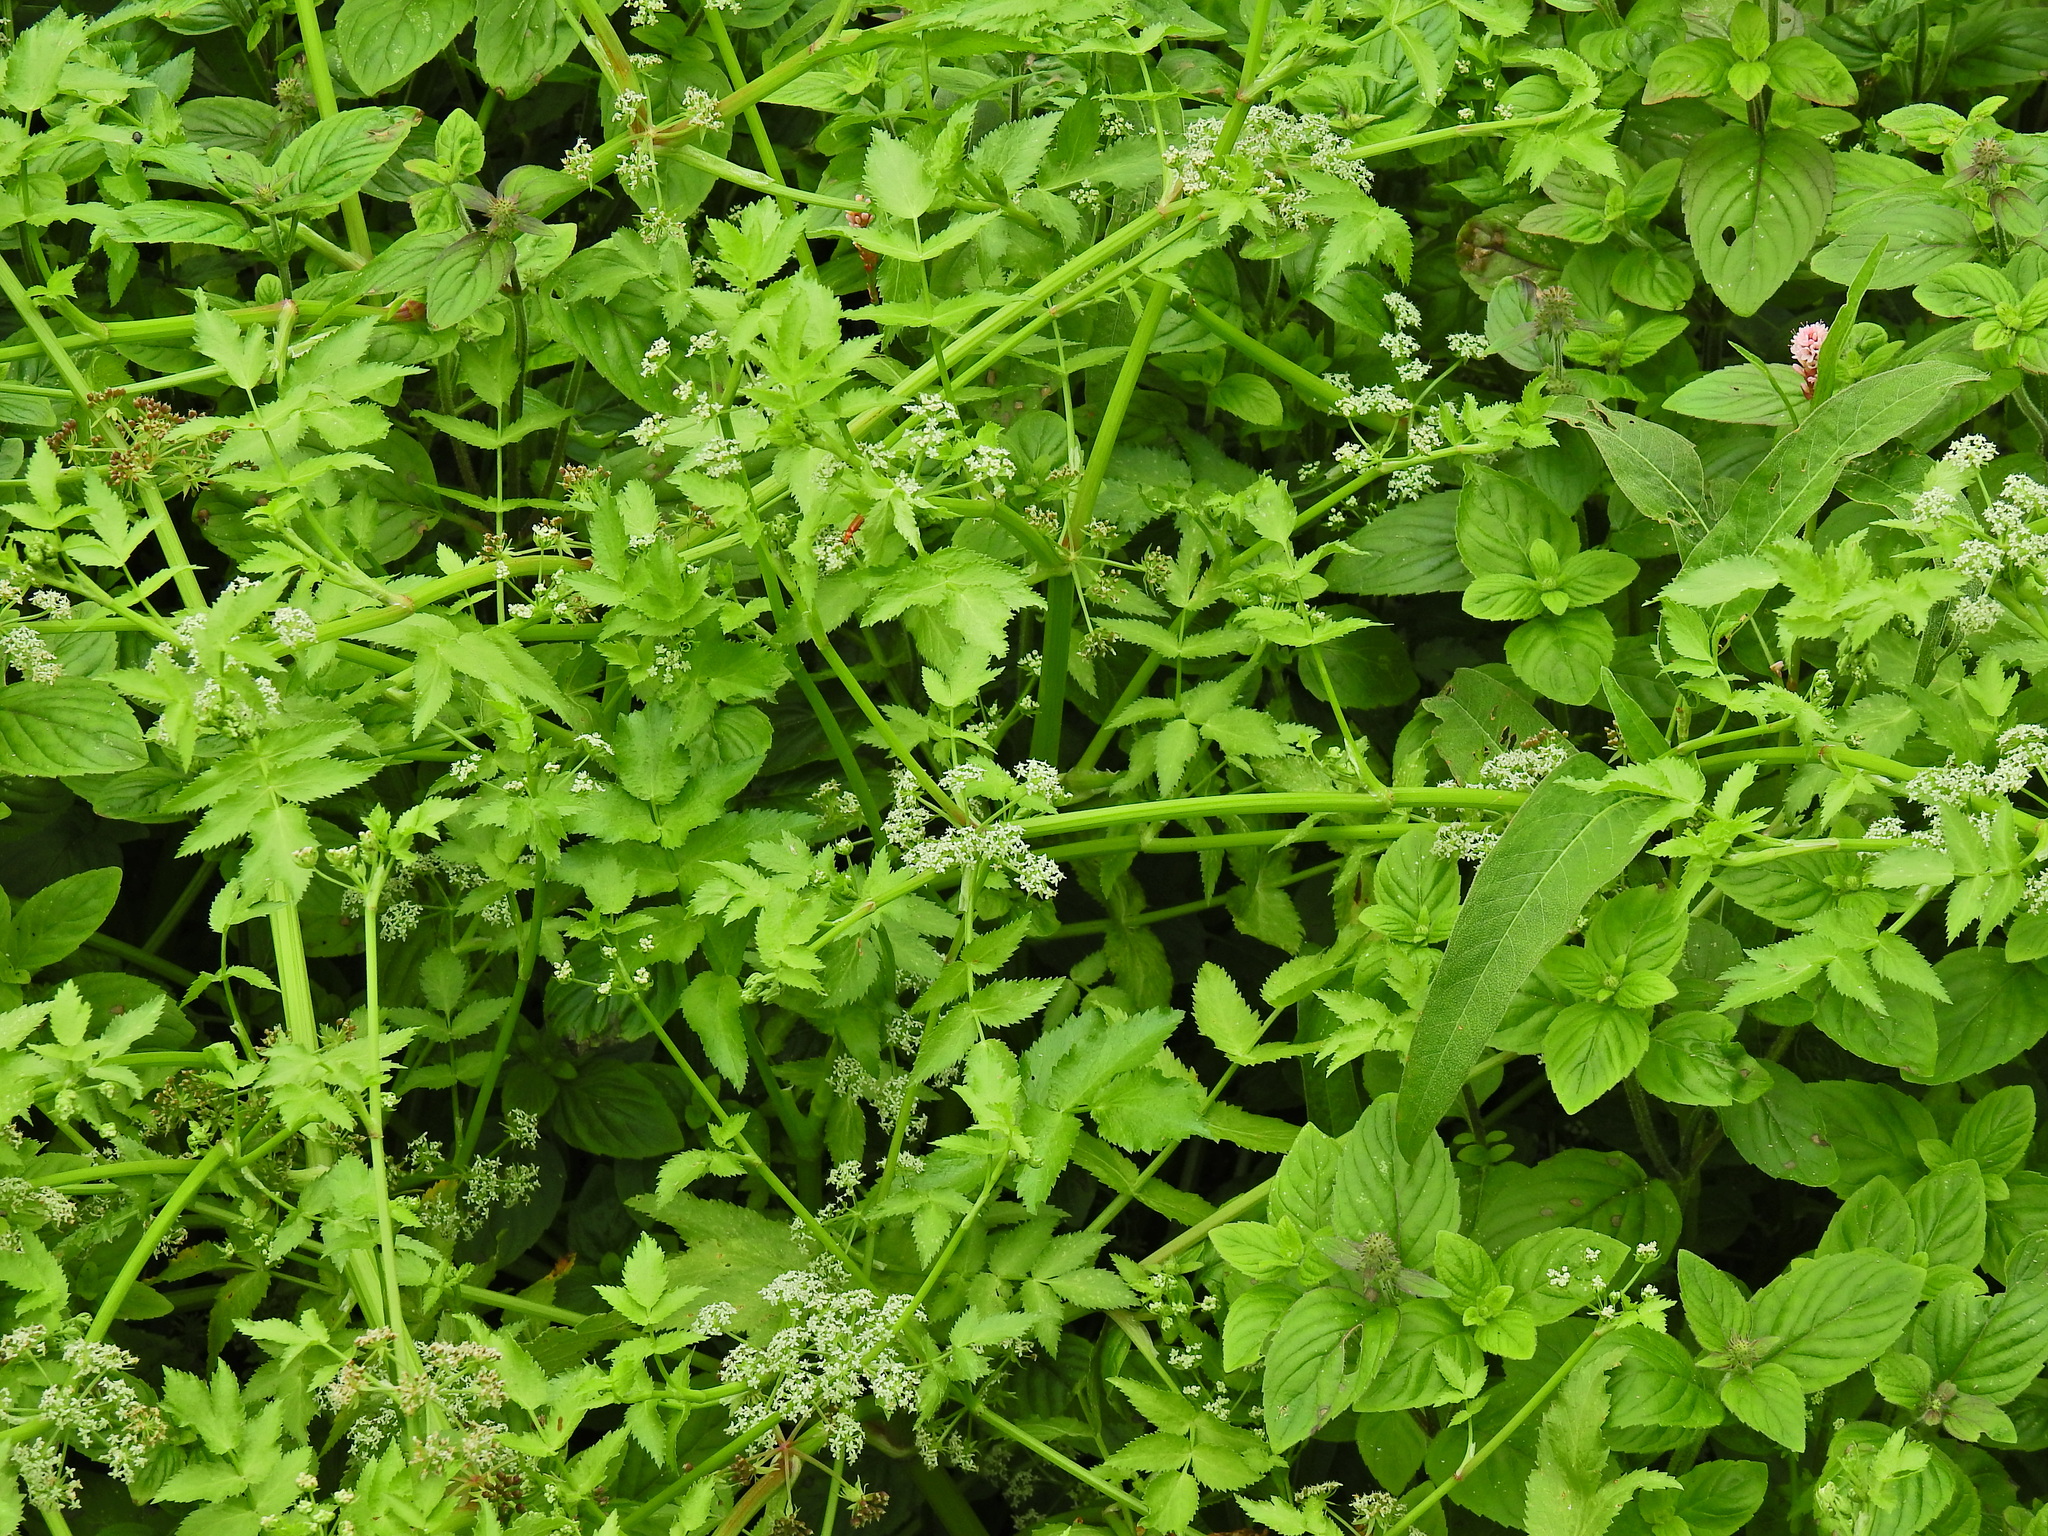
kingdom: Plantae
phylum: Tracheophyta
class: Magnoliopsida
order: Apiales
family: Apiaceae
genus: Helosciadium
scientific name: Helosciadium nodiflorum
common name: Fool's-watercress
